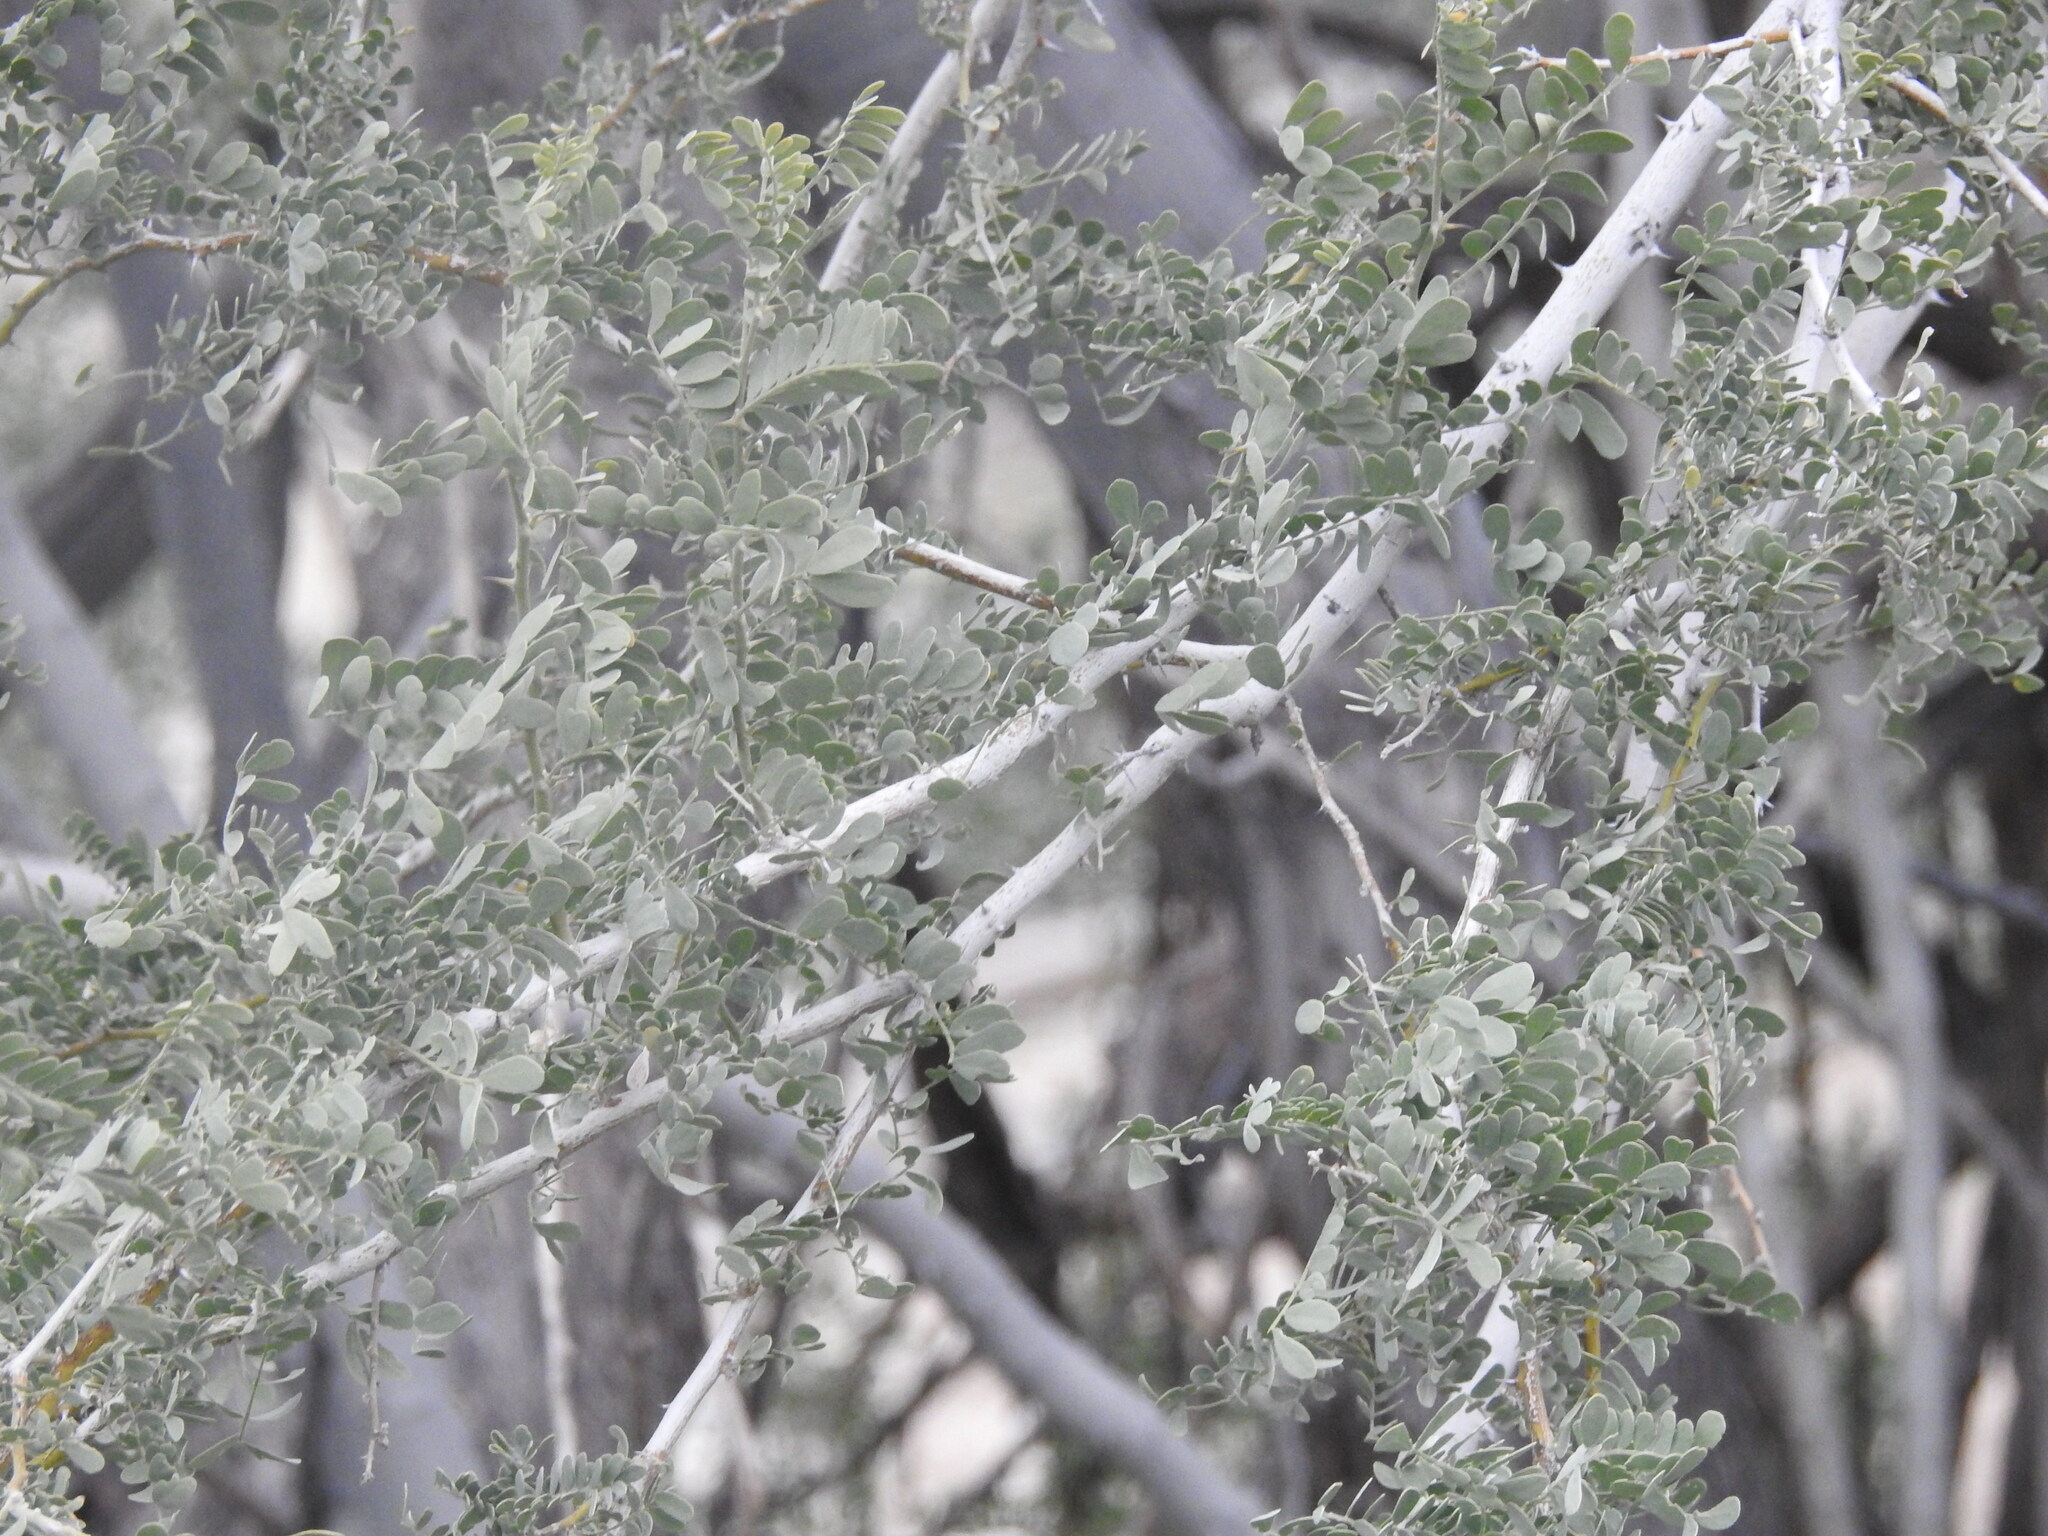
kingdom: Plantae
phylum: Tracheophyta
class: Magnoliopsida
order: Fabales
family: Fabaceae
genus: Olneya
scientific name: Olneya tesota
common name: Desert ironwood
